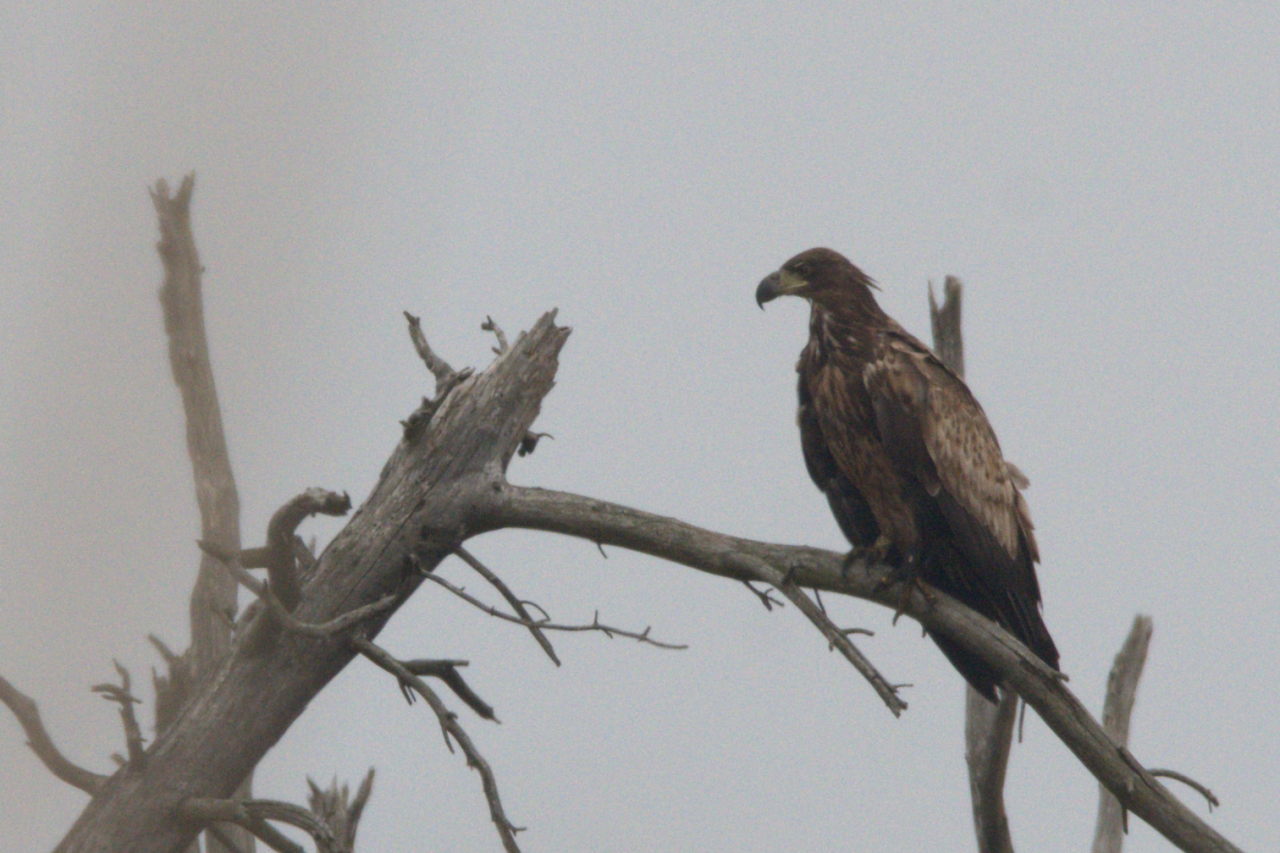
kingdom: Animalia
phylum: Chordata
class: Aves
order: Accipitriformes
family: Accipitridae
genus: Haliaeetus
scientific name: Haliaeetus albicilla
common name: White-tailed eagle
